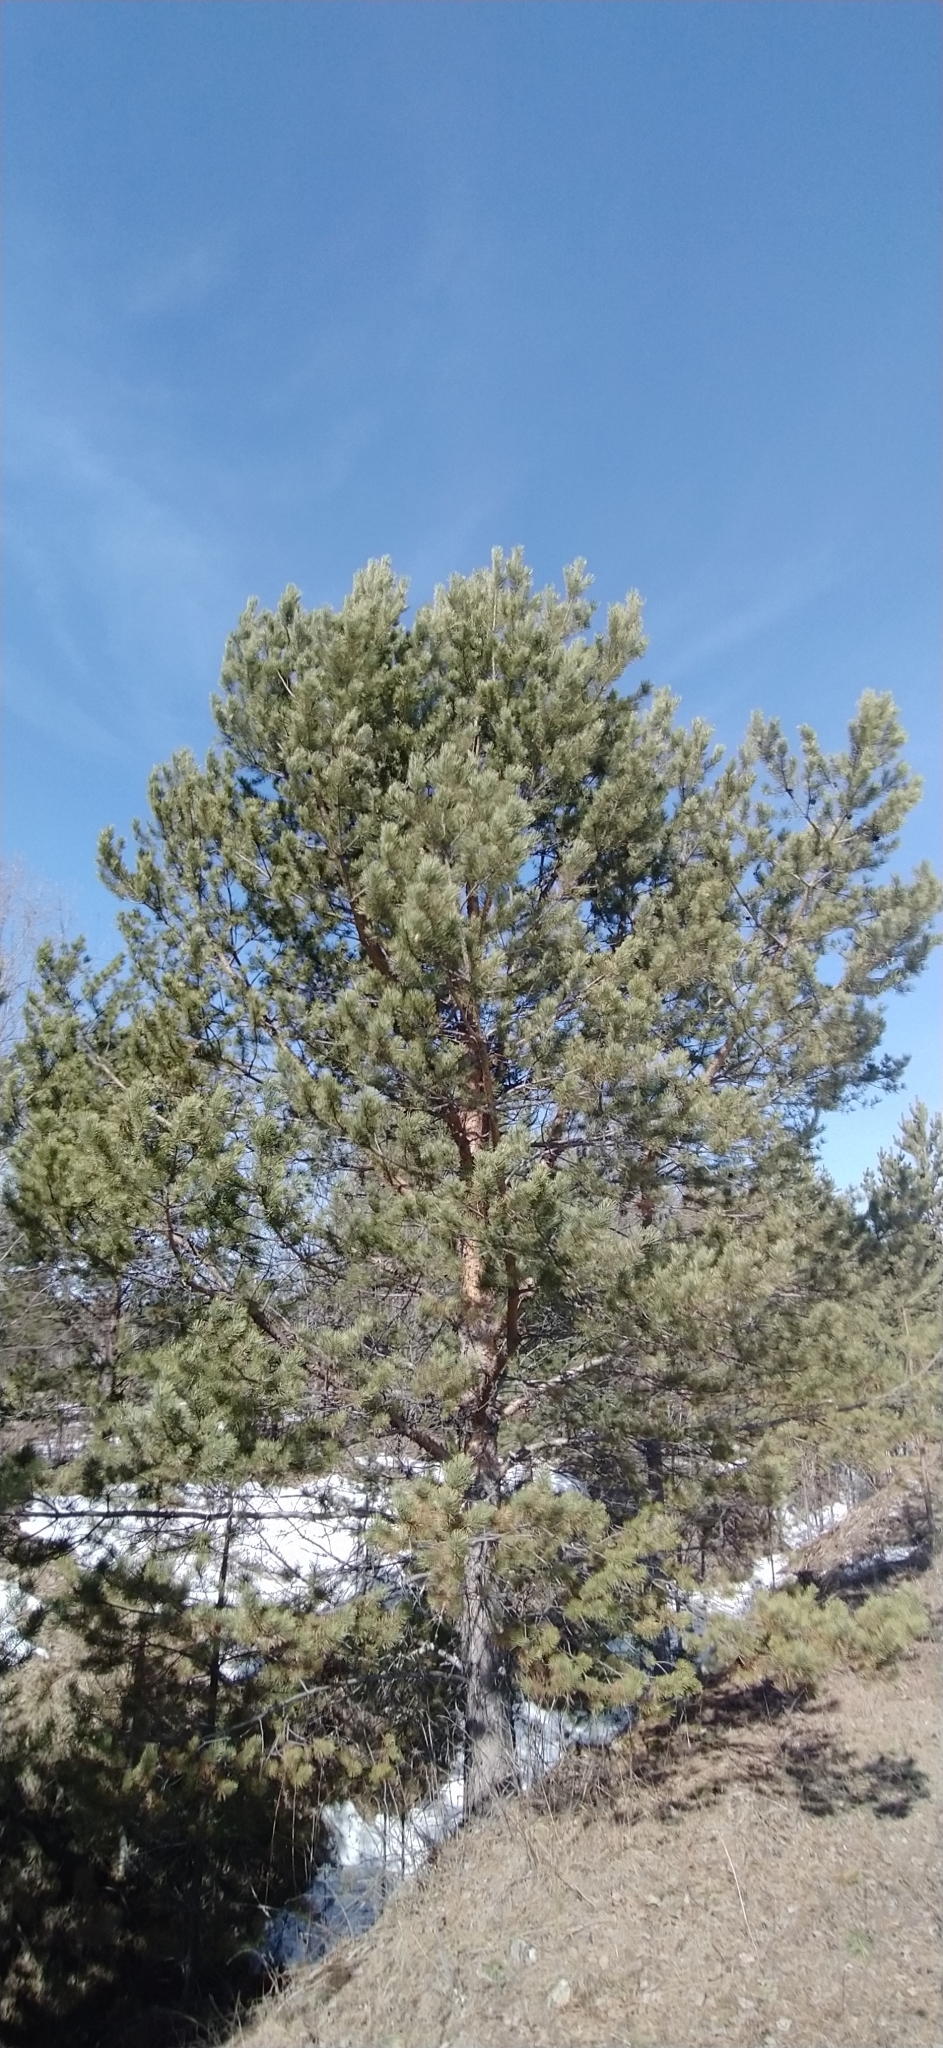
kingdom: Plantae
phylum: Tracheophyta
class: Pinopsida
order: Pinales
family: Pinaceae
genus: Pinus
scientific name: Pinus sylvestris
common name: Scots pine
